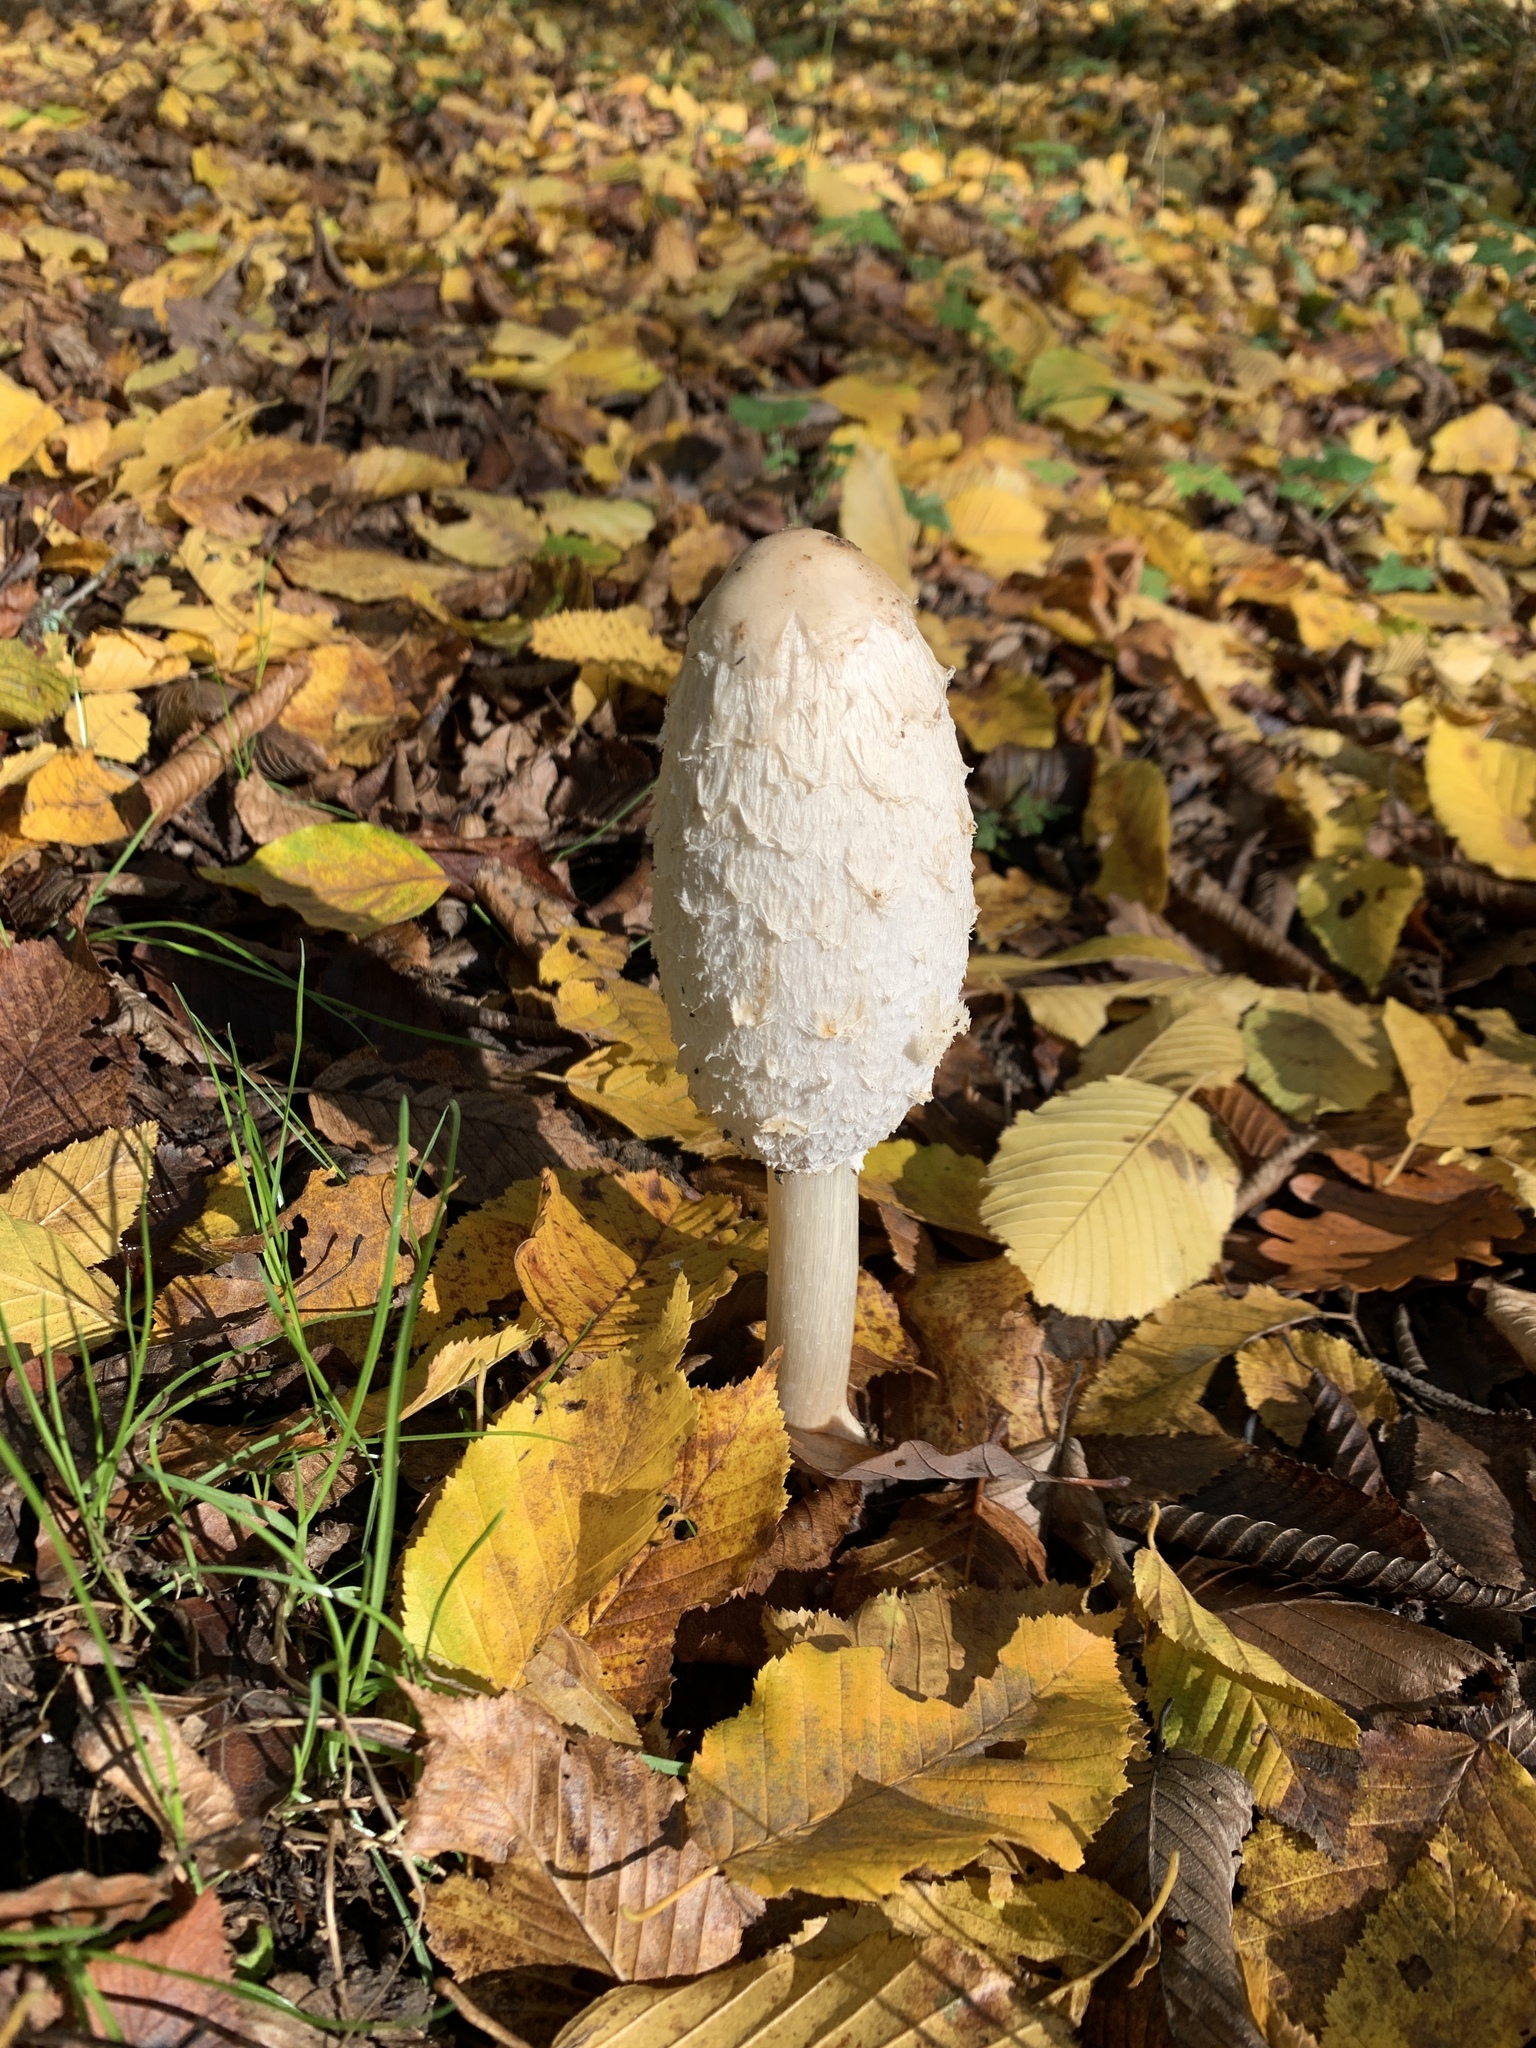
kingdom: Fungi
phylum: Basidiomycota
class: Agaricomycetes
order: Agaricales
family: Agaricaceae
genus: Coprinus
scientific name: Coprinus comatus
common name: Lawyer's wig
